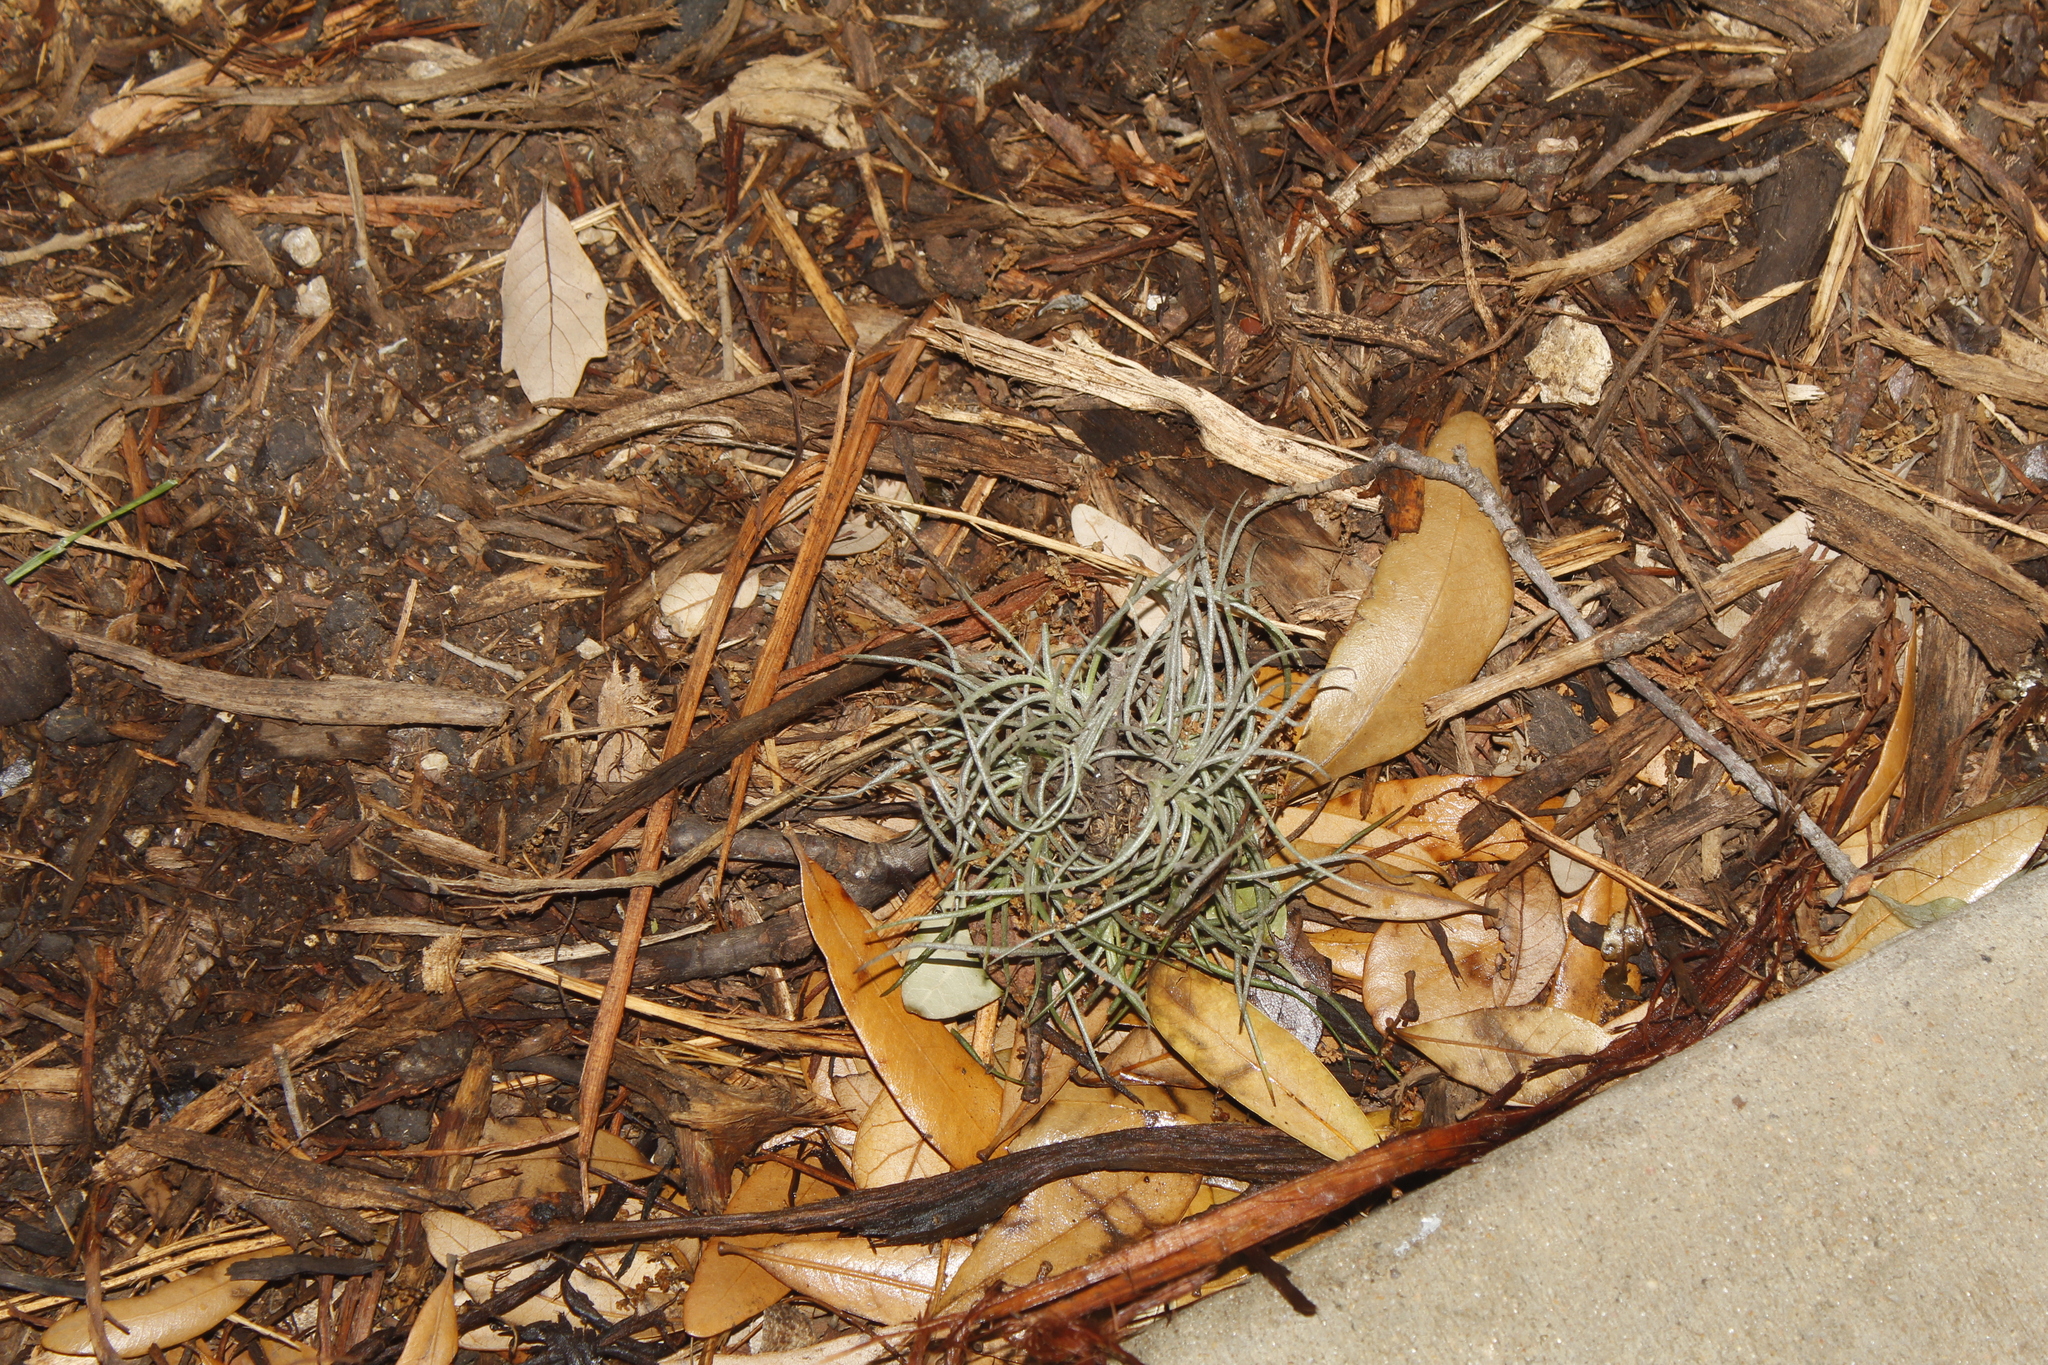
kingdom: Plantae
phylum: Tracheophyta
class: Liliopsida
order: Poales
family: Bromeliaceae
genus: Tillandsia
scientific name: Tillandsia recurvata
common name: Small ballmoss
